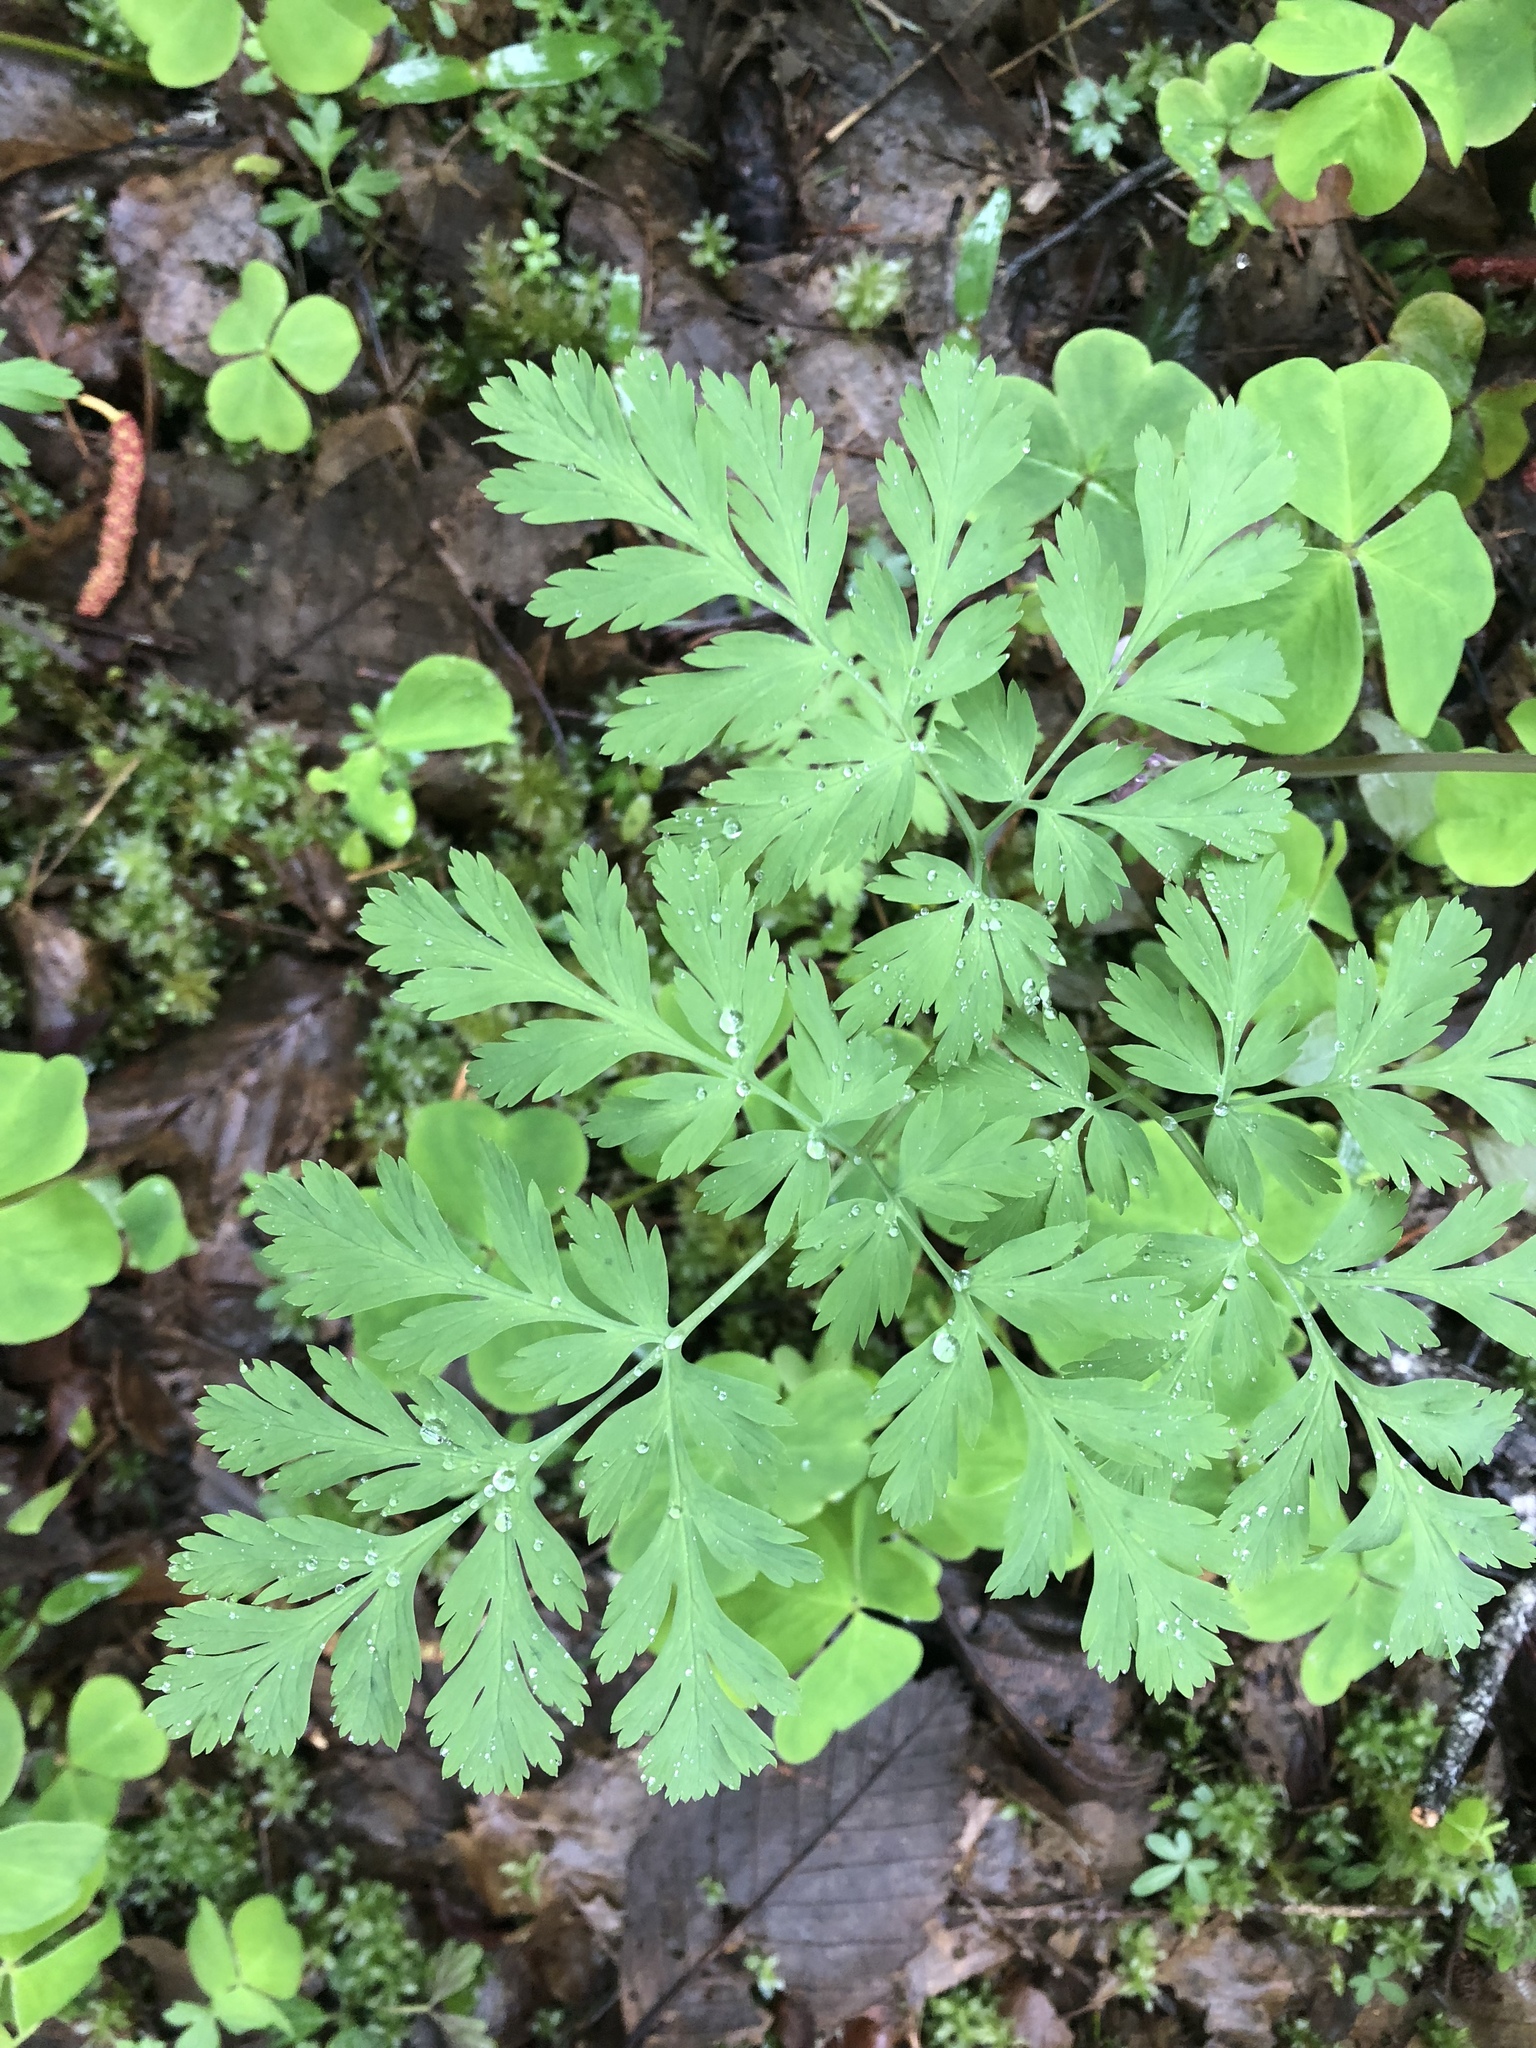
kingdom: Plantae
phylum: Tracheophyta
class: Magnoliopsida
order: Ranunculales
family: Papaveraceae
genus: Dicentra
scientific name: Dicentra formosa
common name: Bleeding-heart
